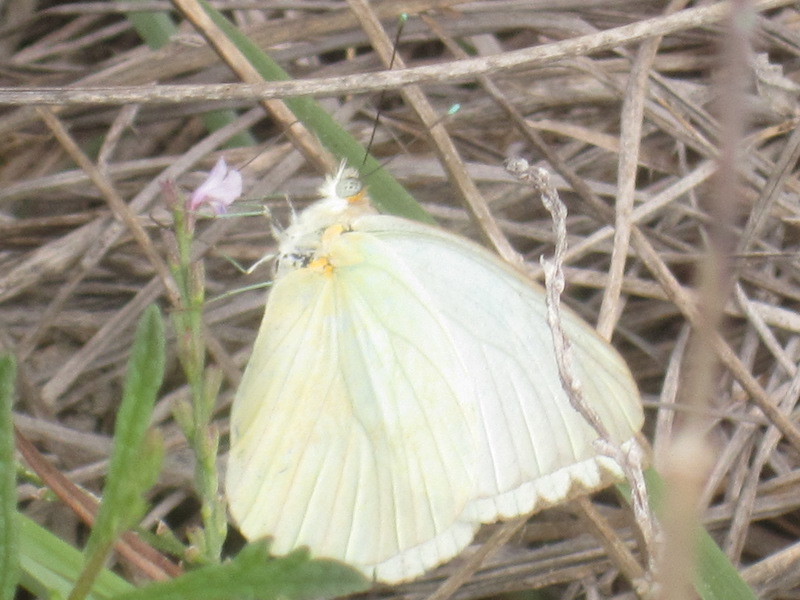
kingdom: Animalia
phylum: Arthropoda
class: Insecta
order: Lepidoptera
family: Pieridae
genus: Ascia
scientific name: Ascia monuste
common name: Great southern white
